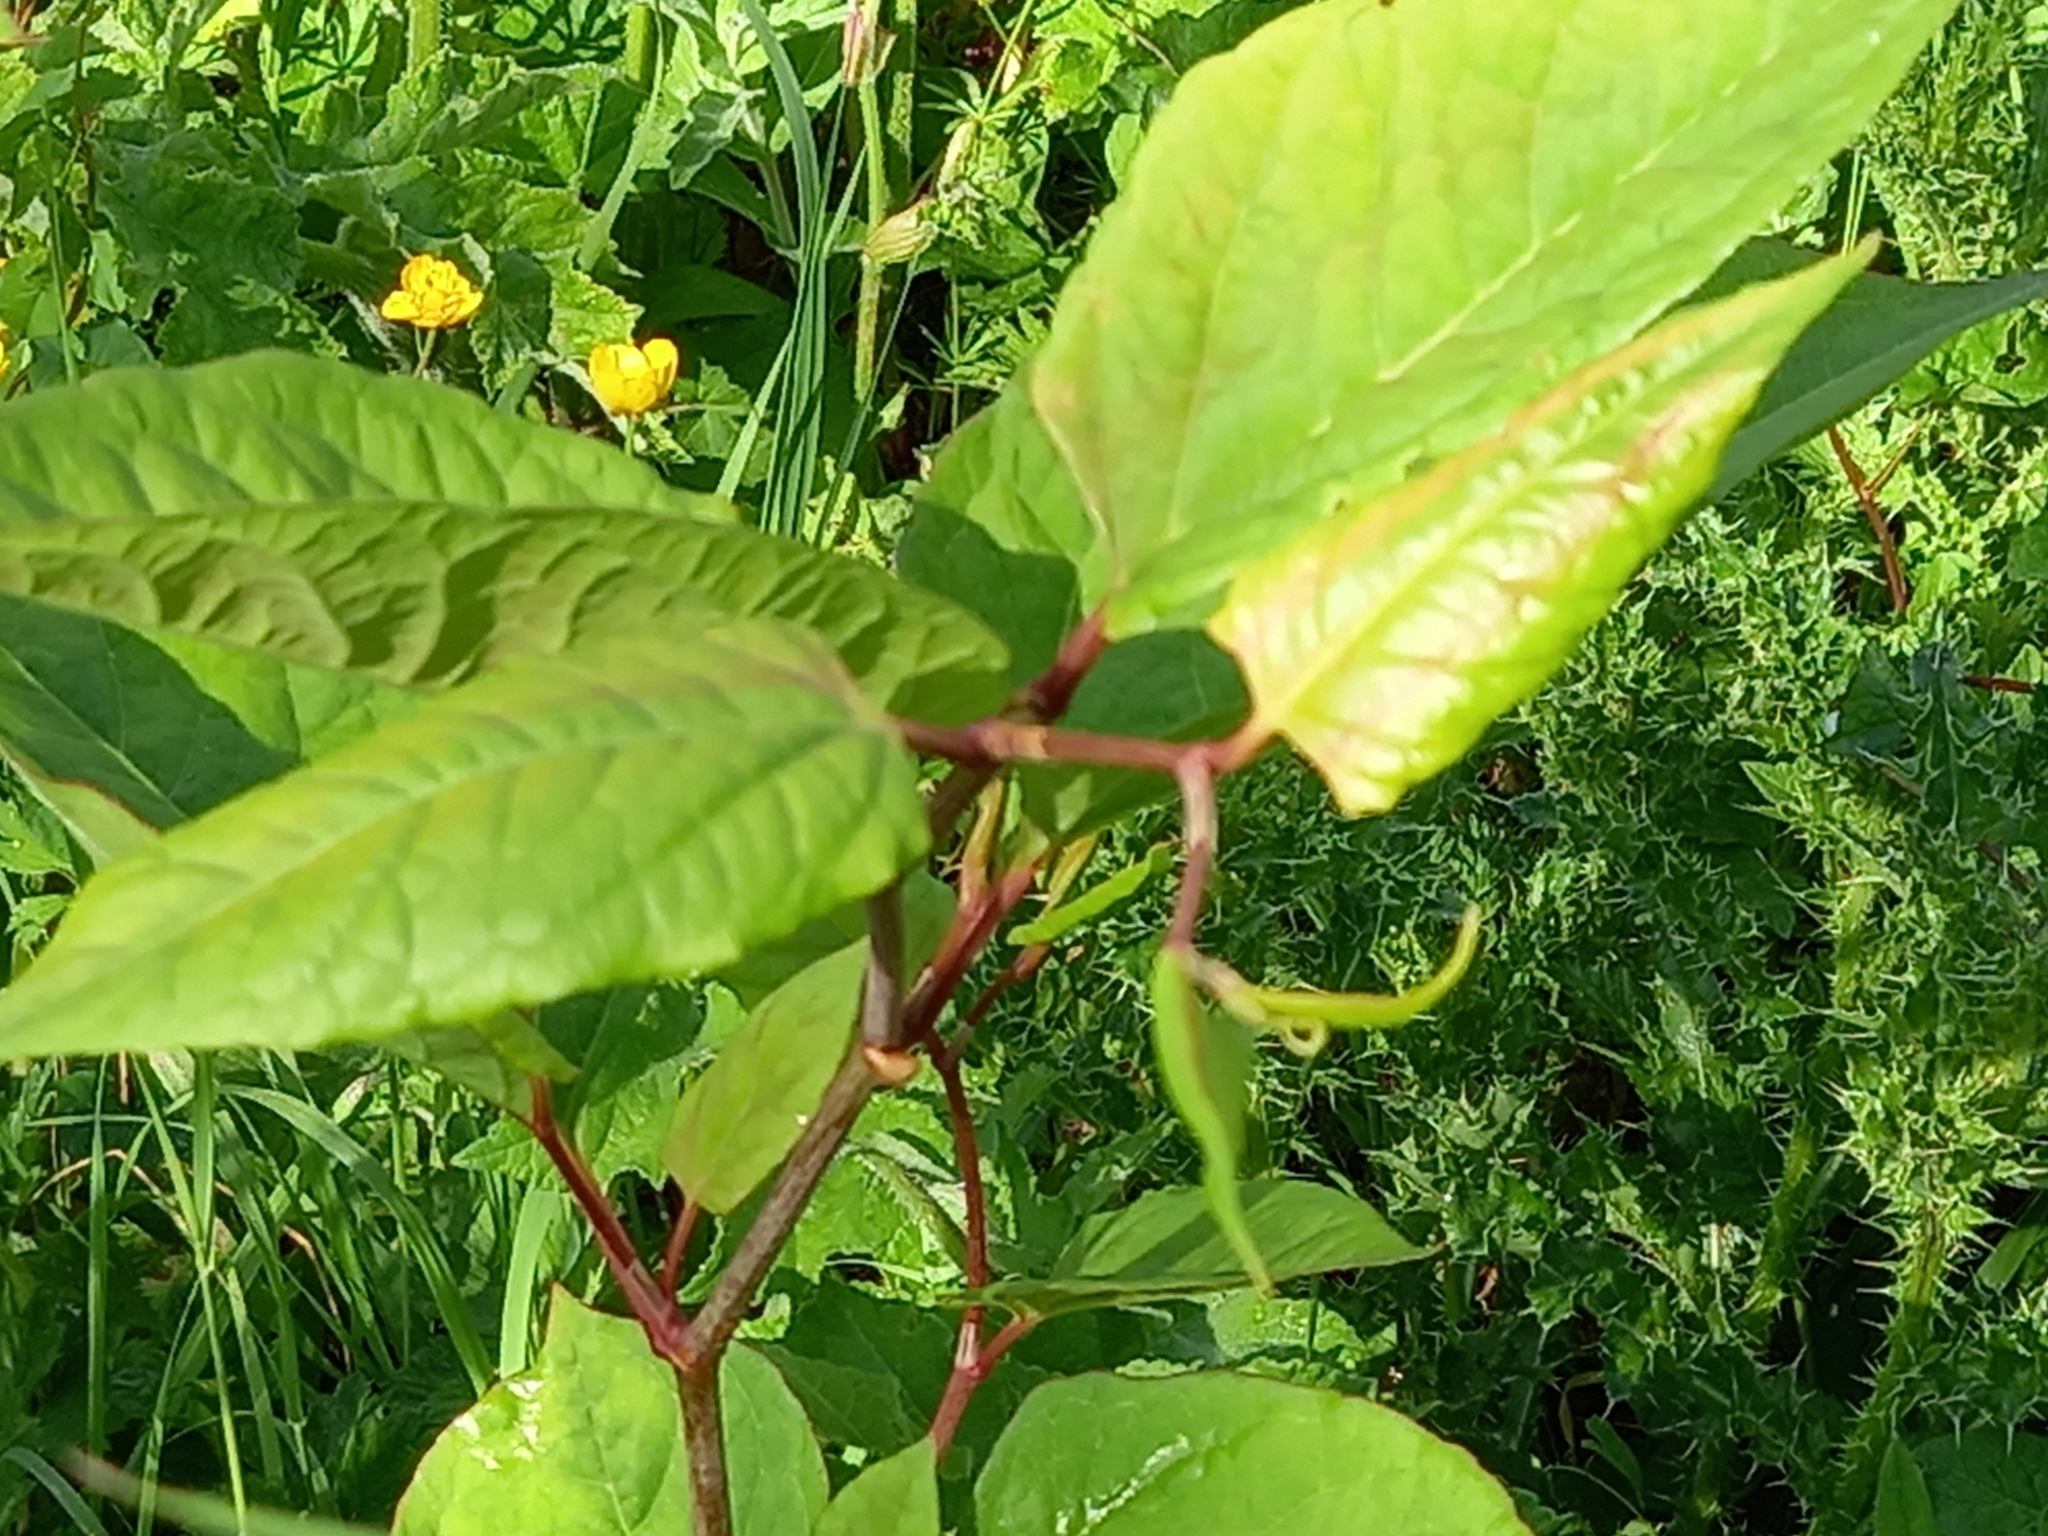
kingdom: Plantae
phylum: Tracheophyta
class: Magnoliopsida
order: Caryophyllales
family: Polygonaceae
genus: Reynoutria
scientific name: Reynoutria japonica
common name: Japanese knotweed
